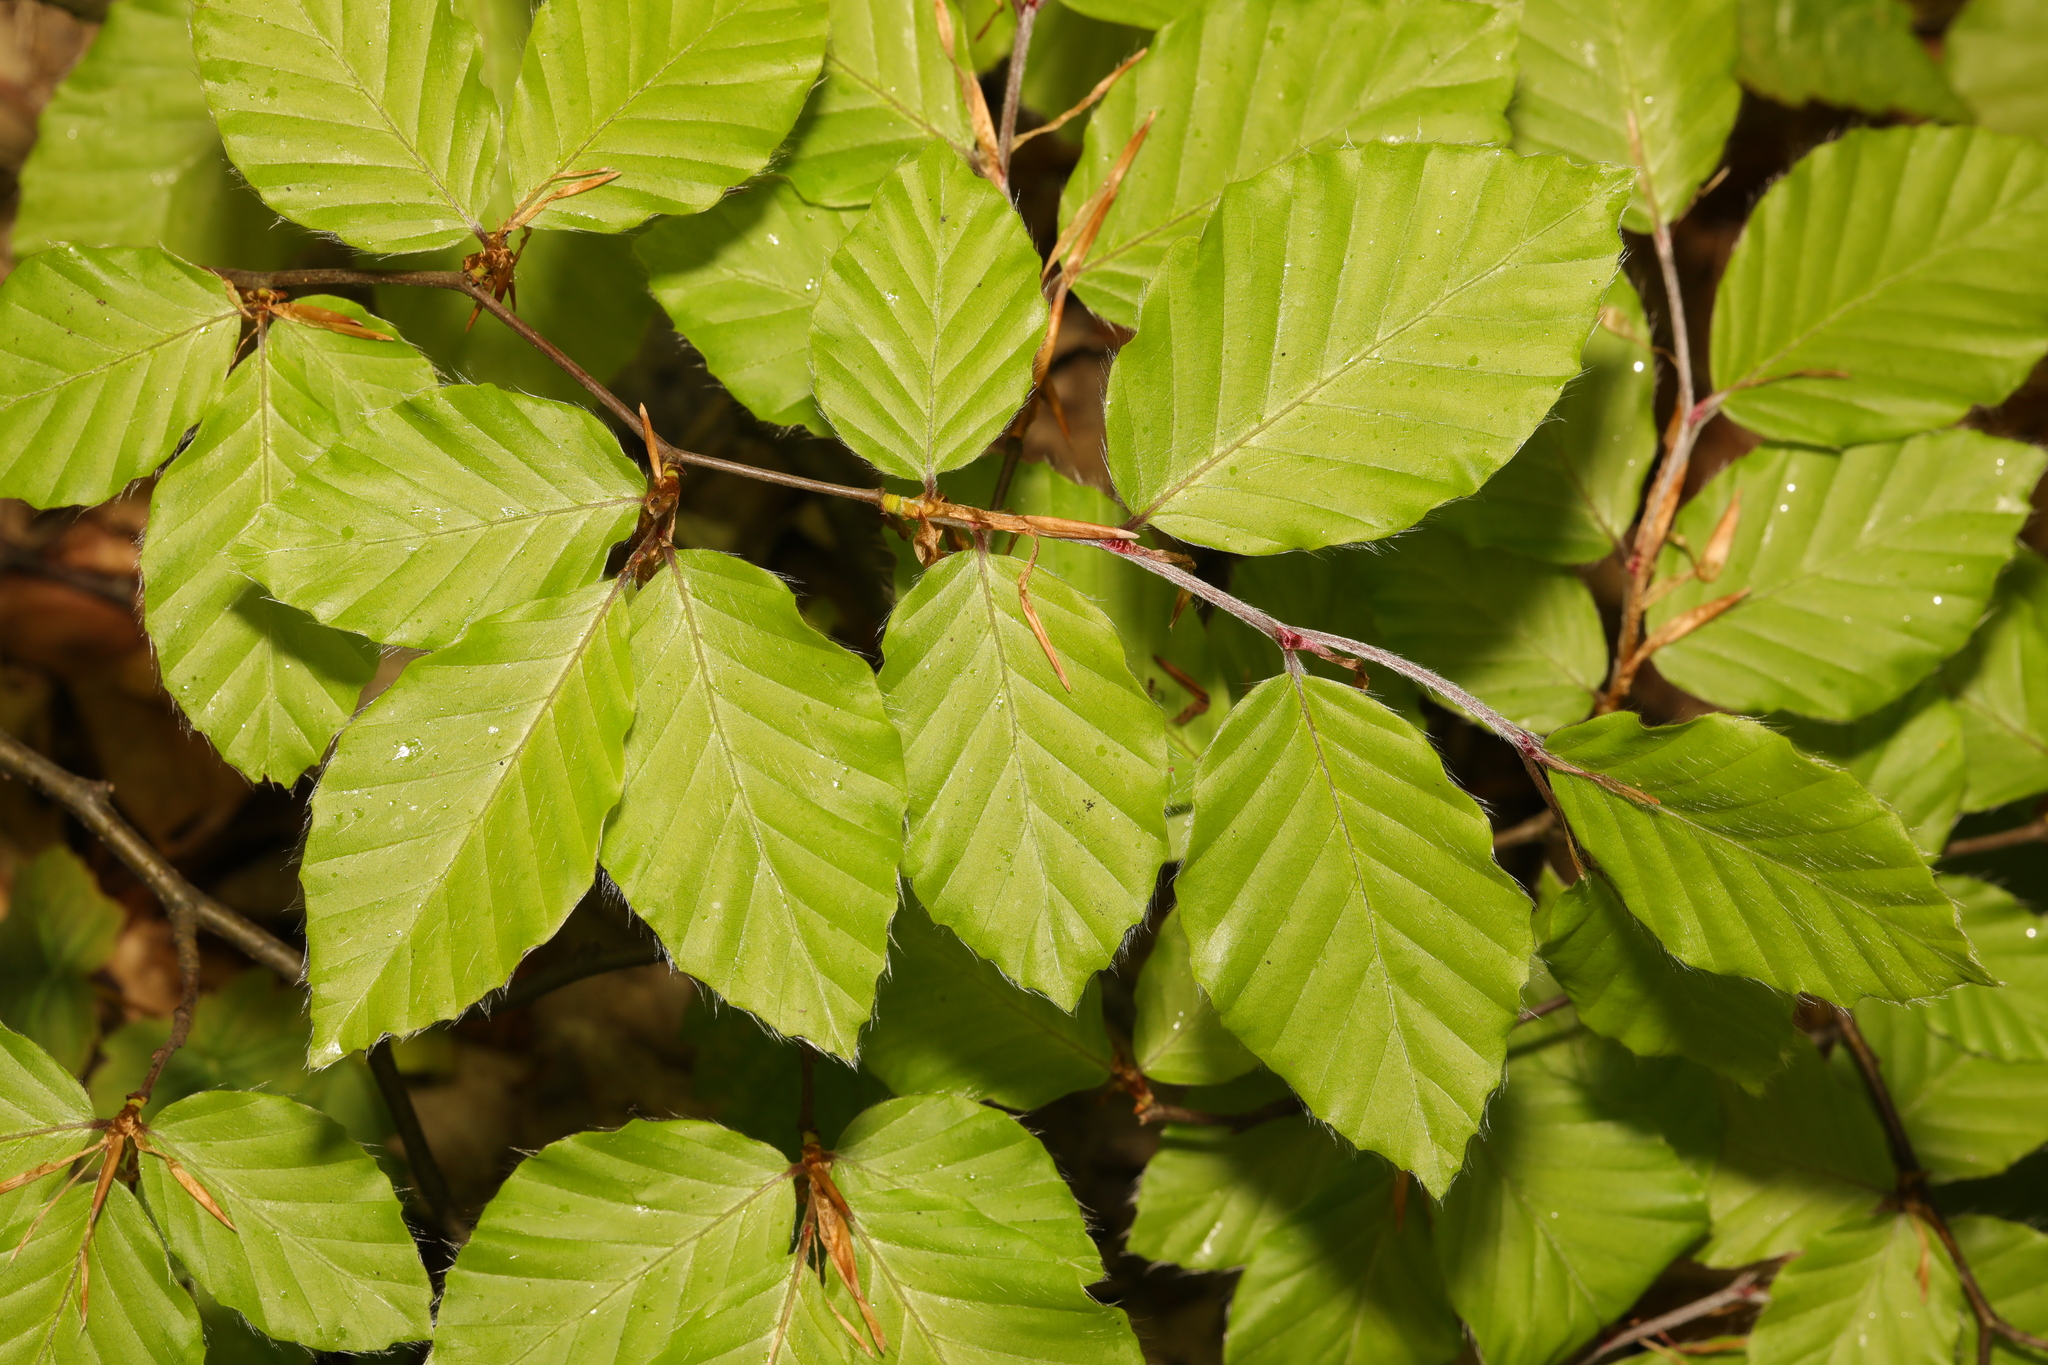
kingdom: Plantae
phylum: Tracheophyta
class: Magnoliopsida
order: Fagales
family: Fagaceae
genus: Fagus
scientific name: Fagus sylvatica
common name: Beech
